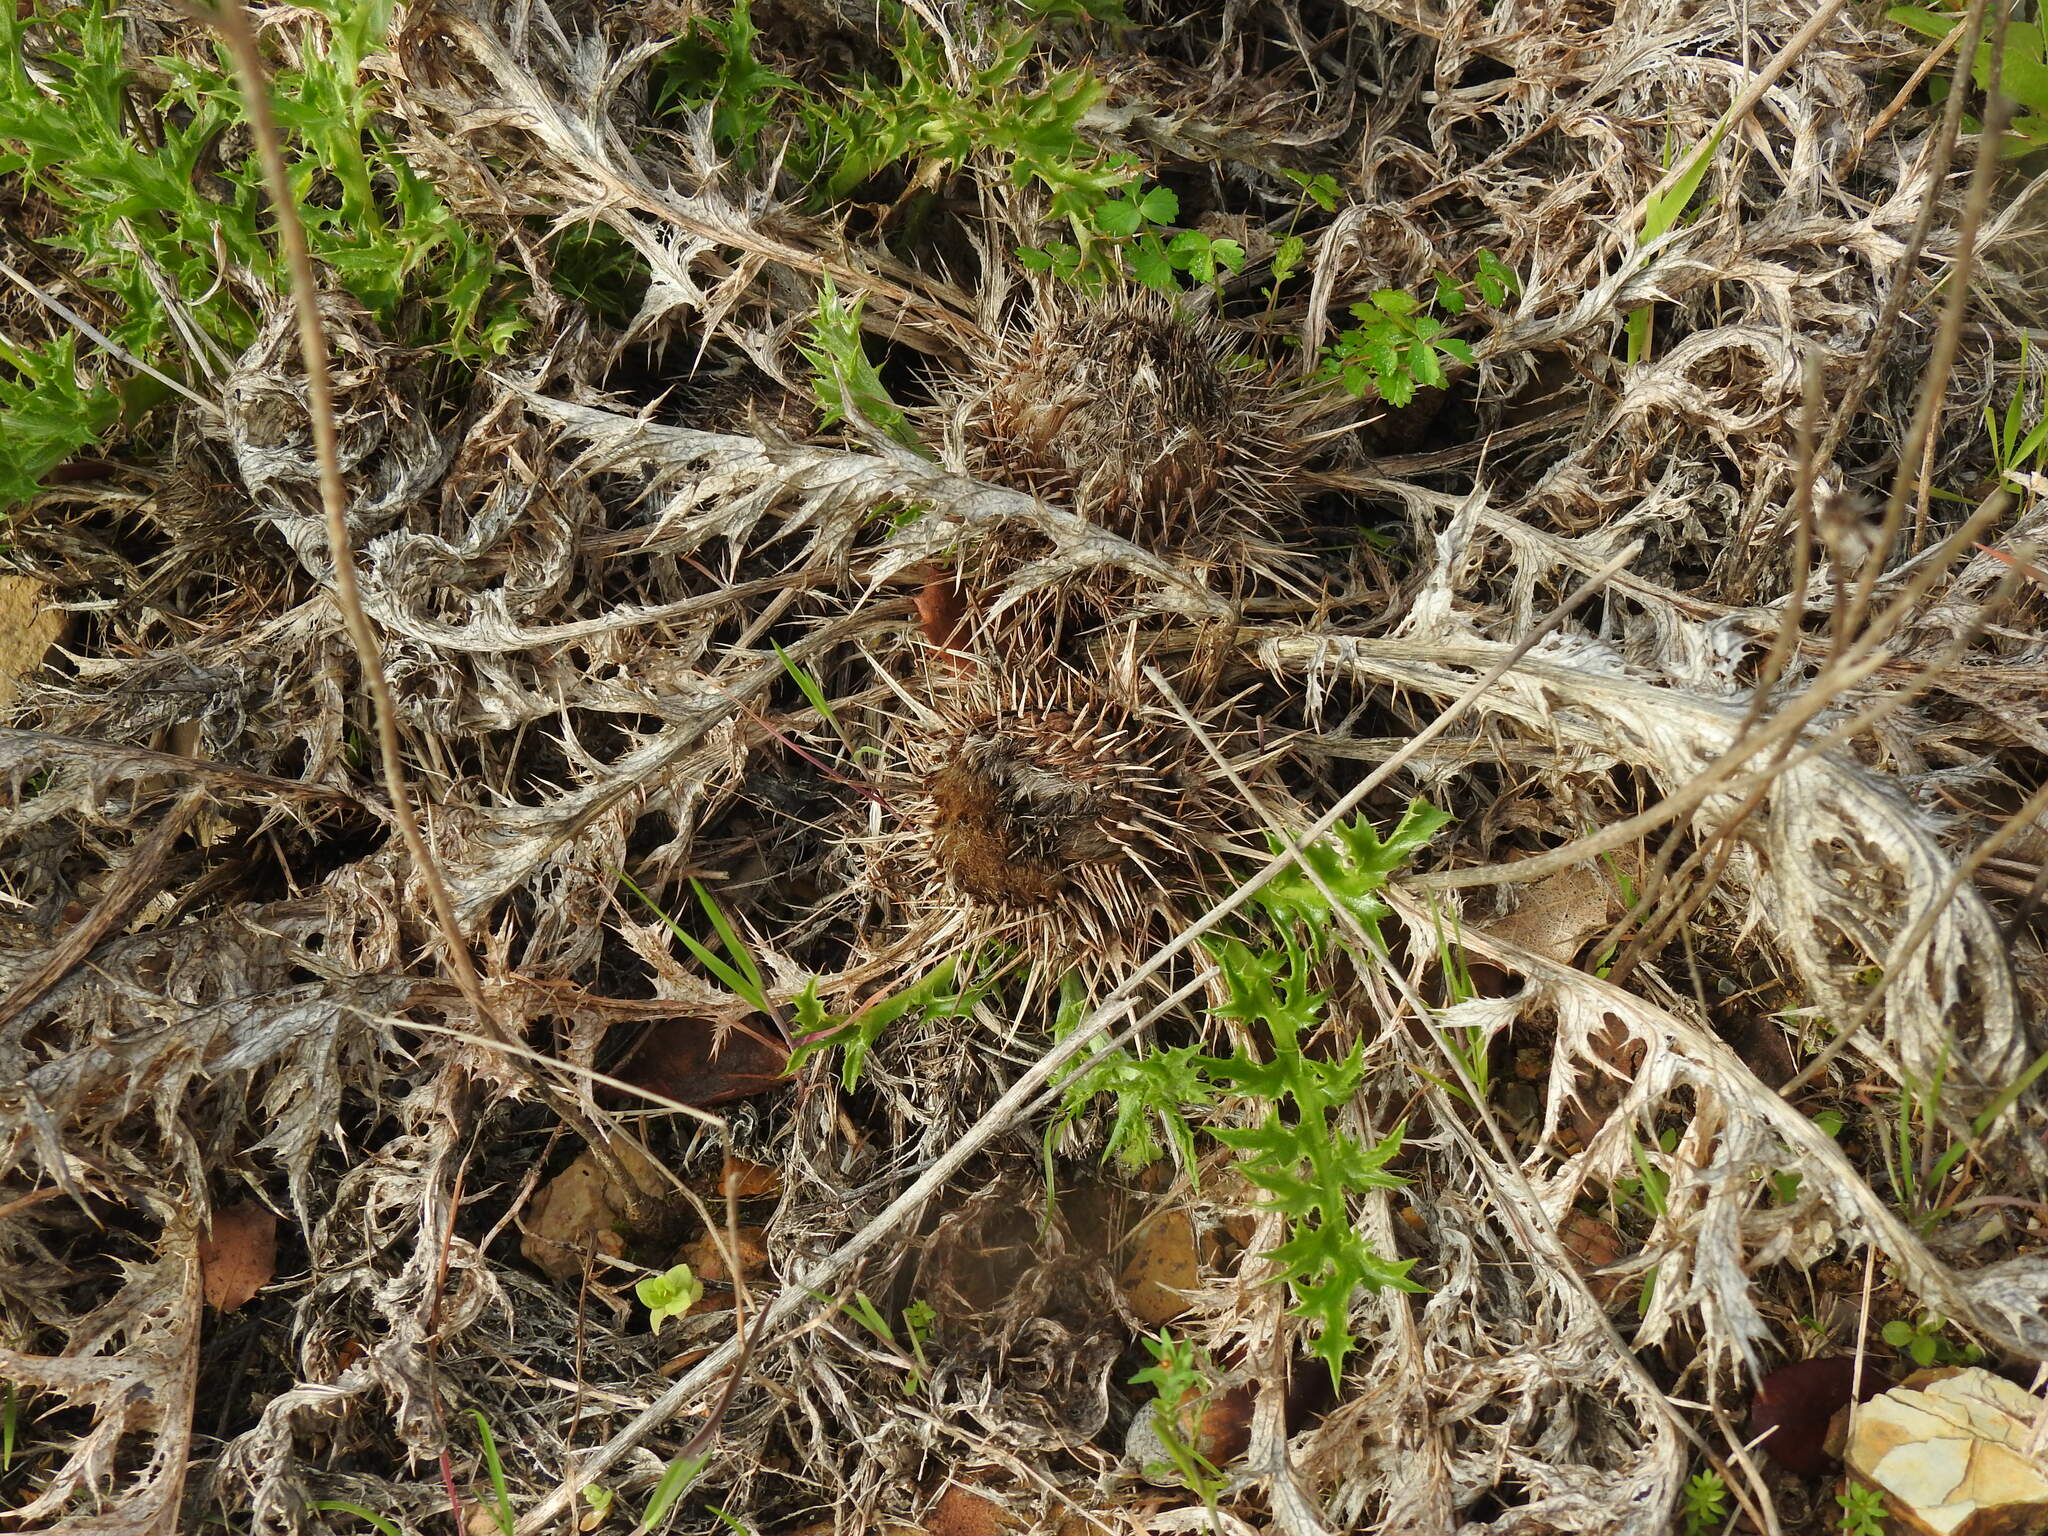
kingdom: Plantae
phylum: Tracheophyta
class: Magnoliopsida
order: Asterales
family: Asteraceae
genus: Chamaeleon
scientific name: Chamaeleon gummifer
